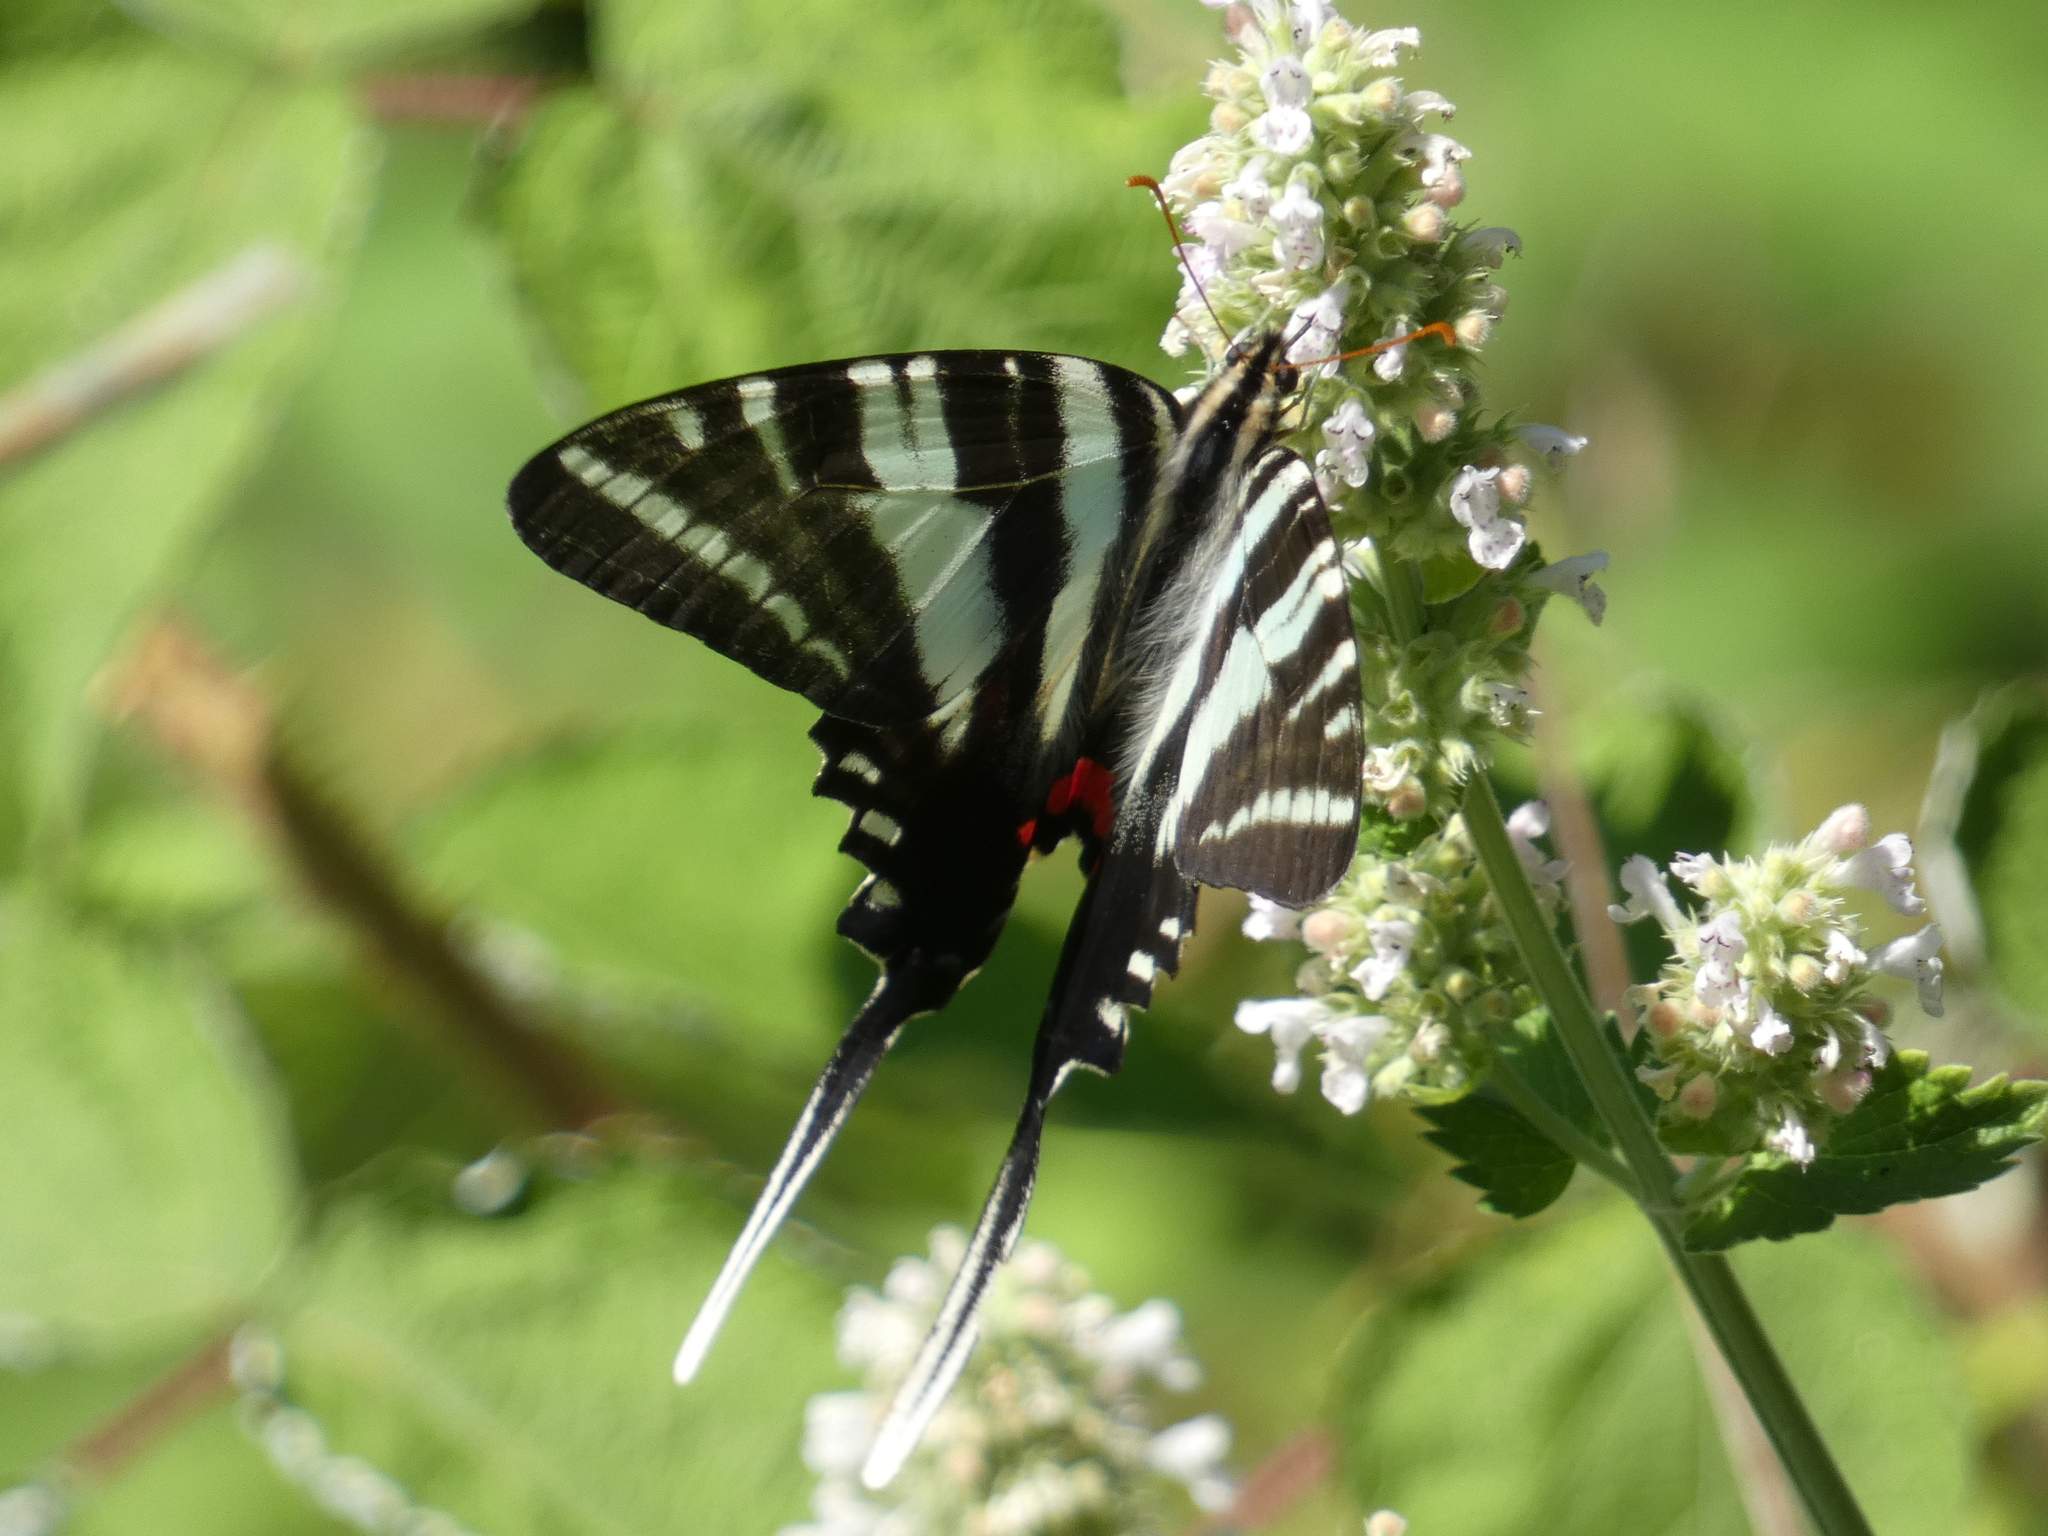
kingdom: Animalia
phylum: Arthropoda
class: Insecta
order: Lepidoptera
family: Papilionidae
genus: Protographium
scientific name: Protographium marcellus
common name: Zebra swallowtail
